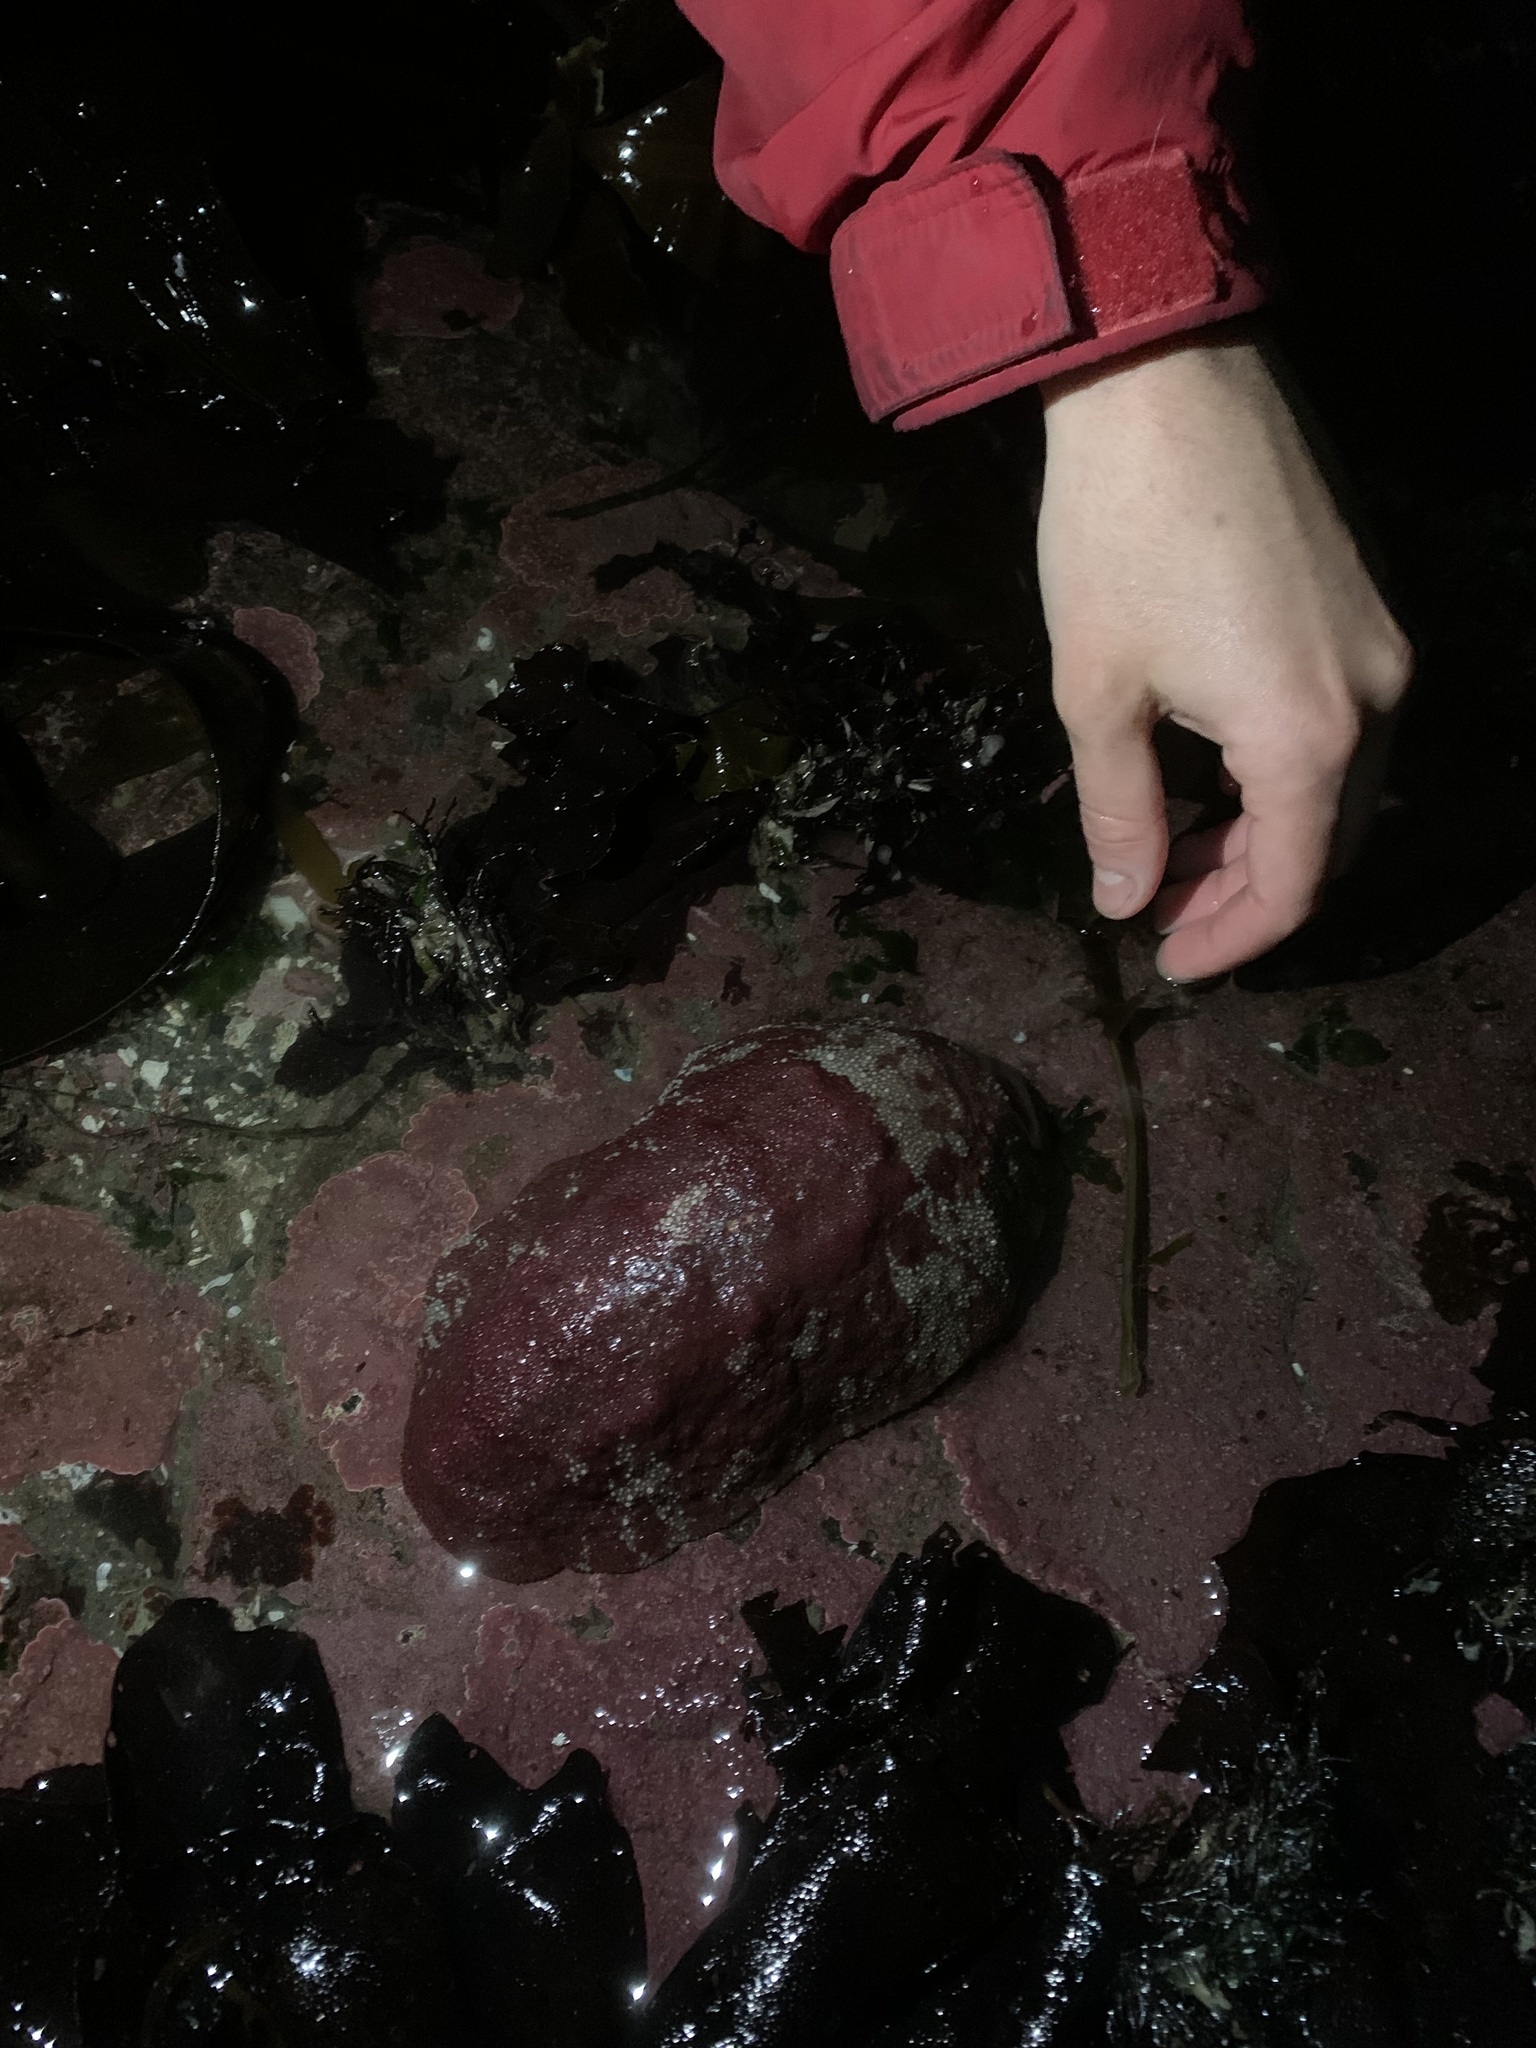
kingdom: Animalia
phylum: Mollusca
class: Polyplacophora
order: Chitonida
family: Acanthochitonidae
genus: Cryptochiton
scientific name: Cryptochiton stelleri
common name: Giant pacific chiton
